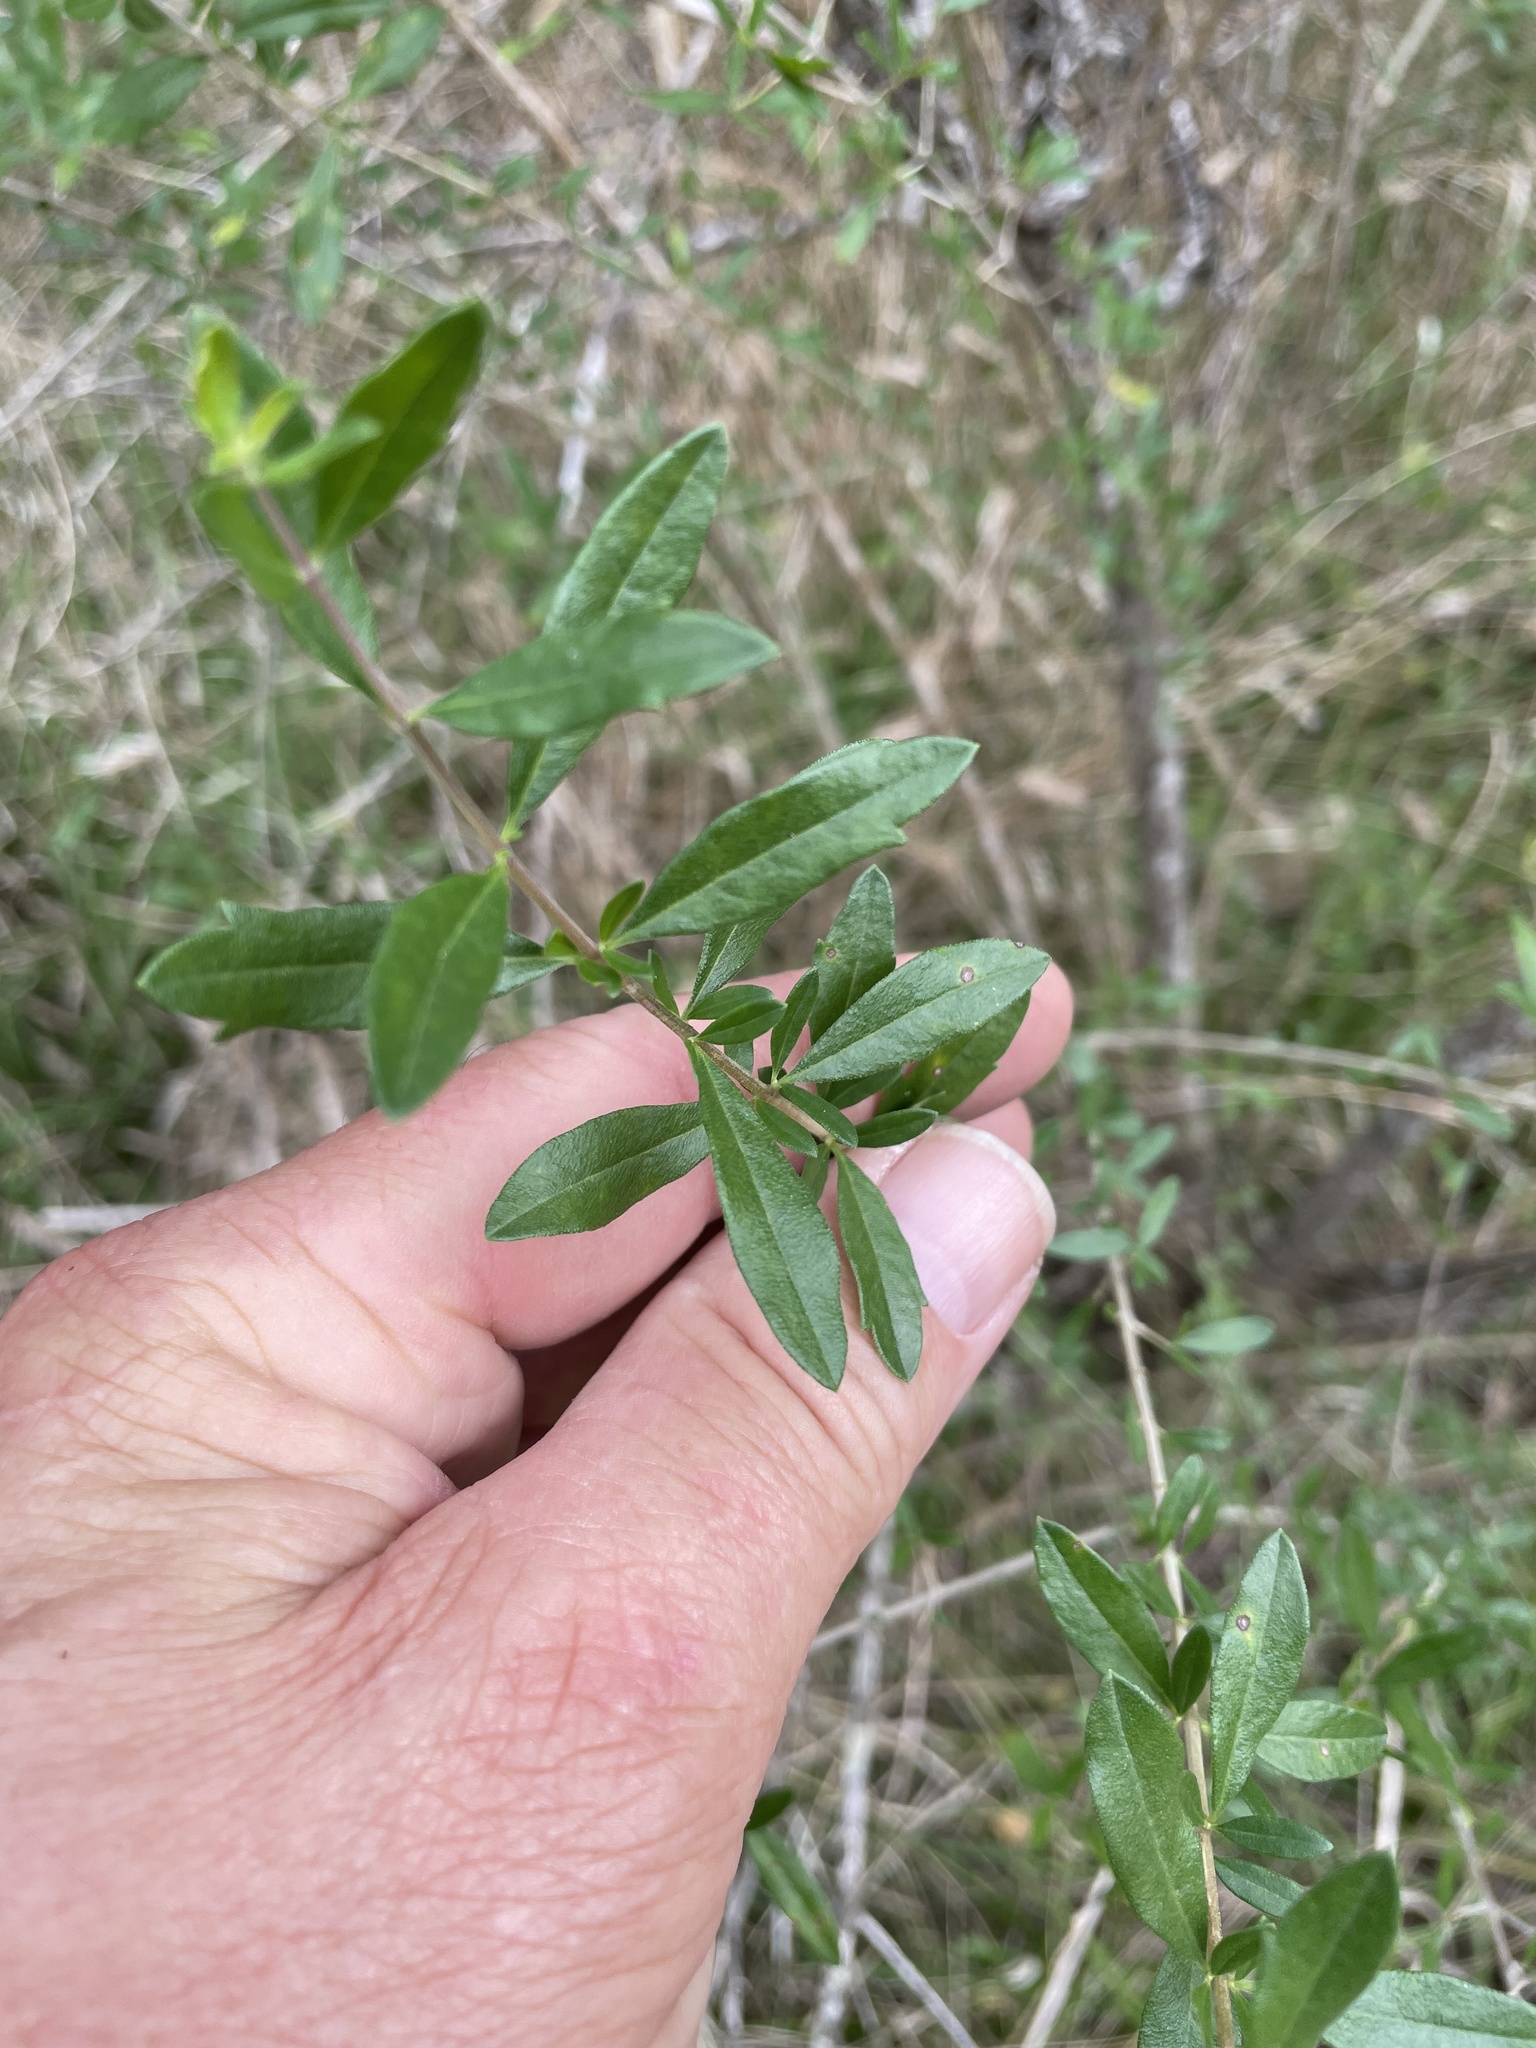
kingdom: Plantae
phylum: Tracheophyta
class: Magnoliopsida
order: Lamiales
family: Verbenaceae
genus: Aloysia
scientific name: Aloysia gratissima
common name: Common bee-brush
